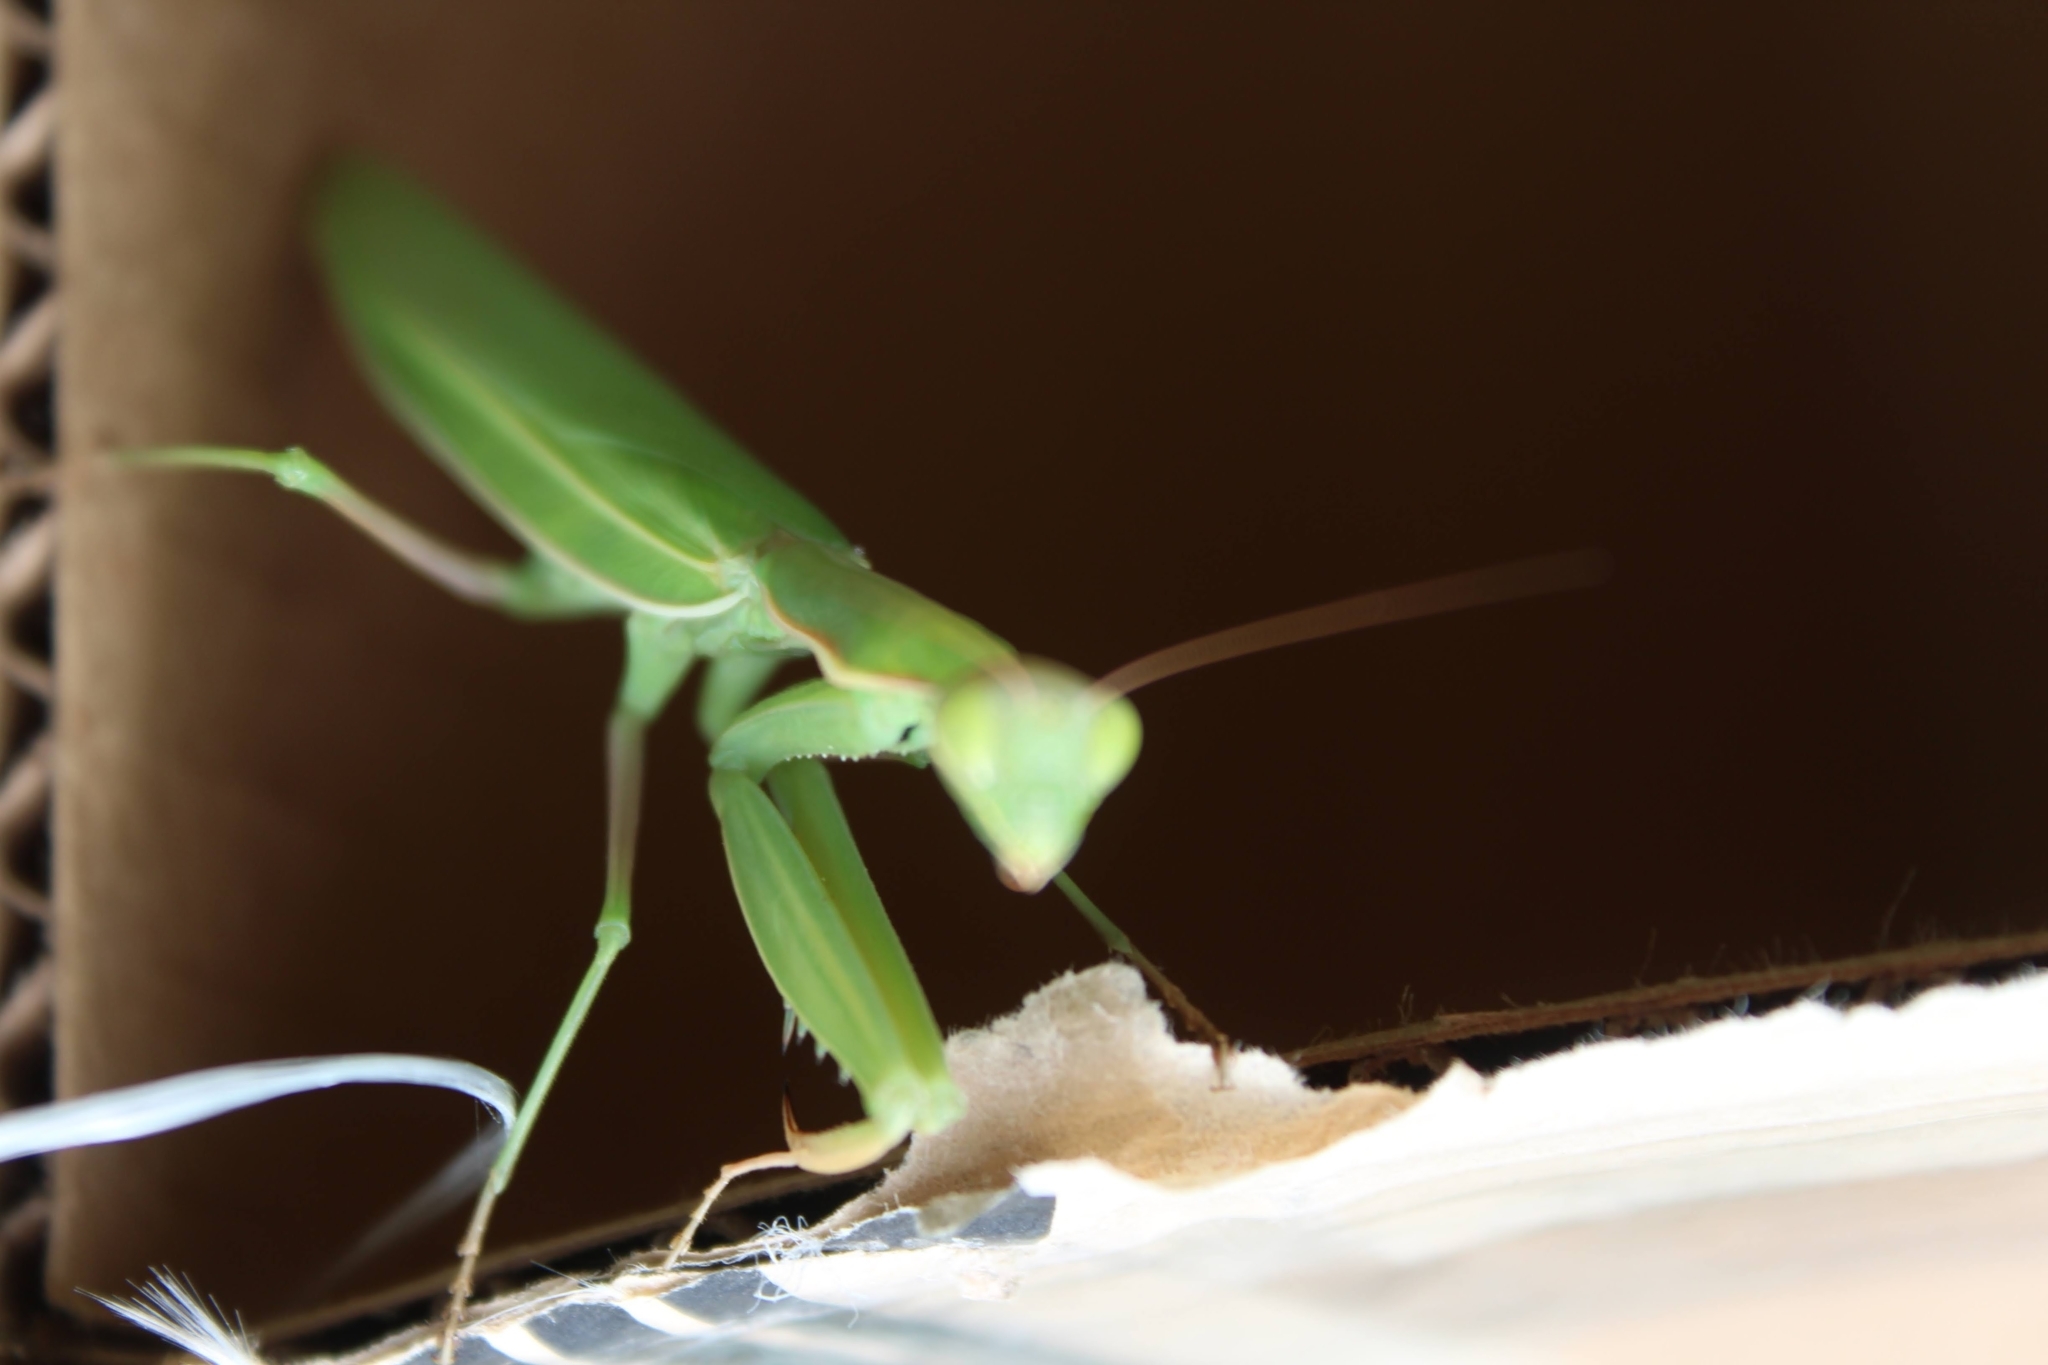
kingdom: Animalia
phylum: Arthropoda
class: Insecta
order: Mantodea
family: Mantidae
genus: Mantis
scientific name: Mantis religiosa
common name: Praying mantis
